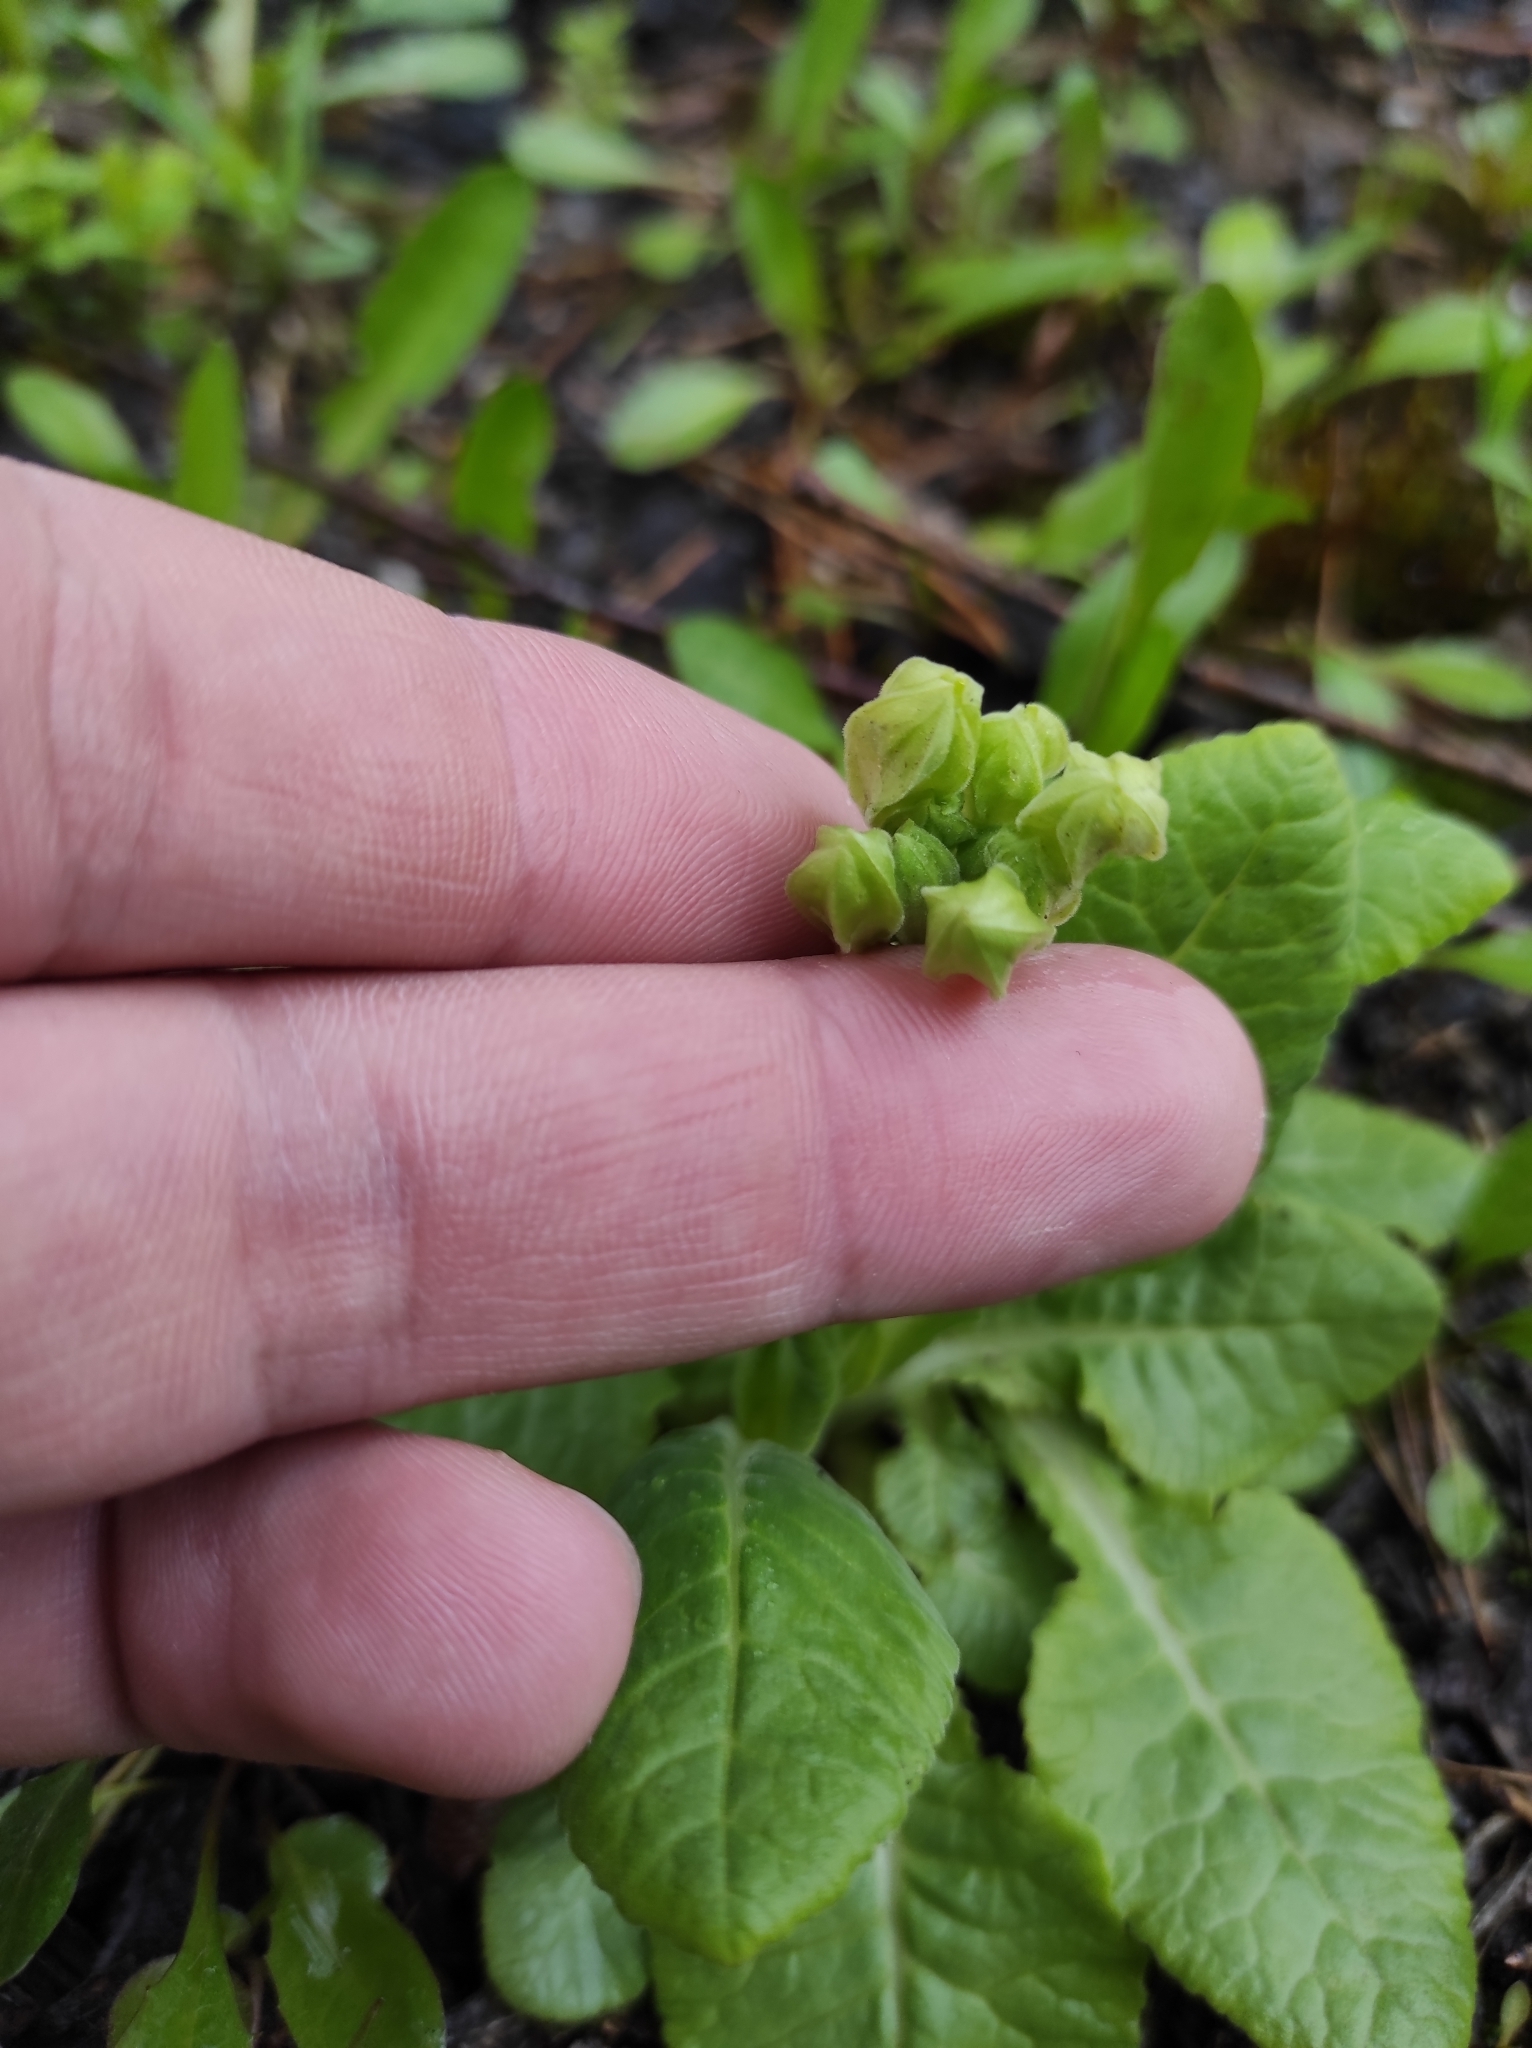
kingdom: Plantae
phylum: Tracheophyta
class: Magnoliopsida
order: Ericales
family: Primulaceae
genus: Primula
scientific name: Primula veris
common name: Cowslip
